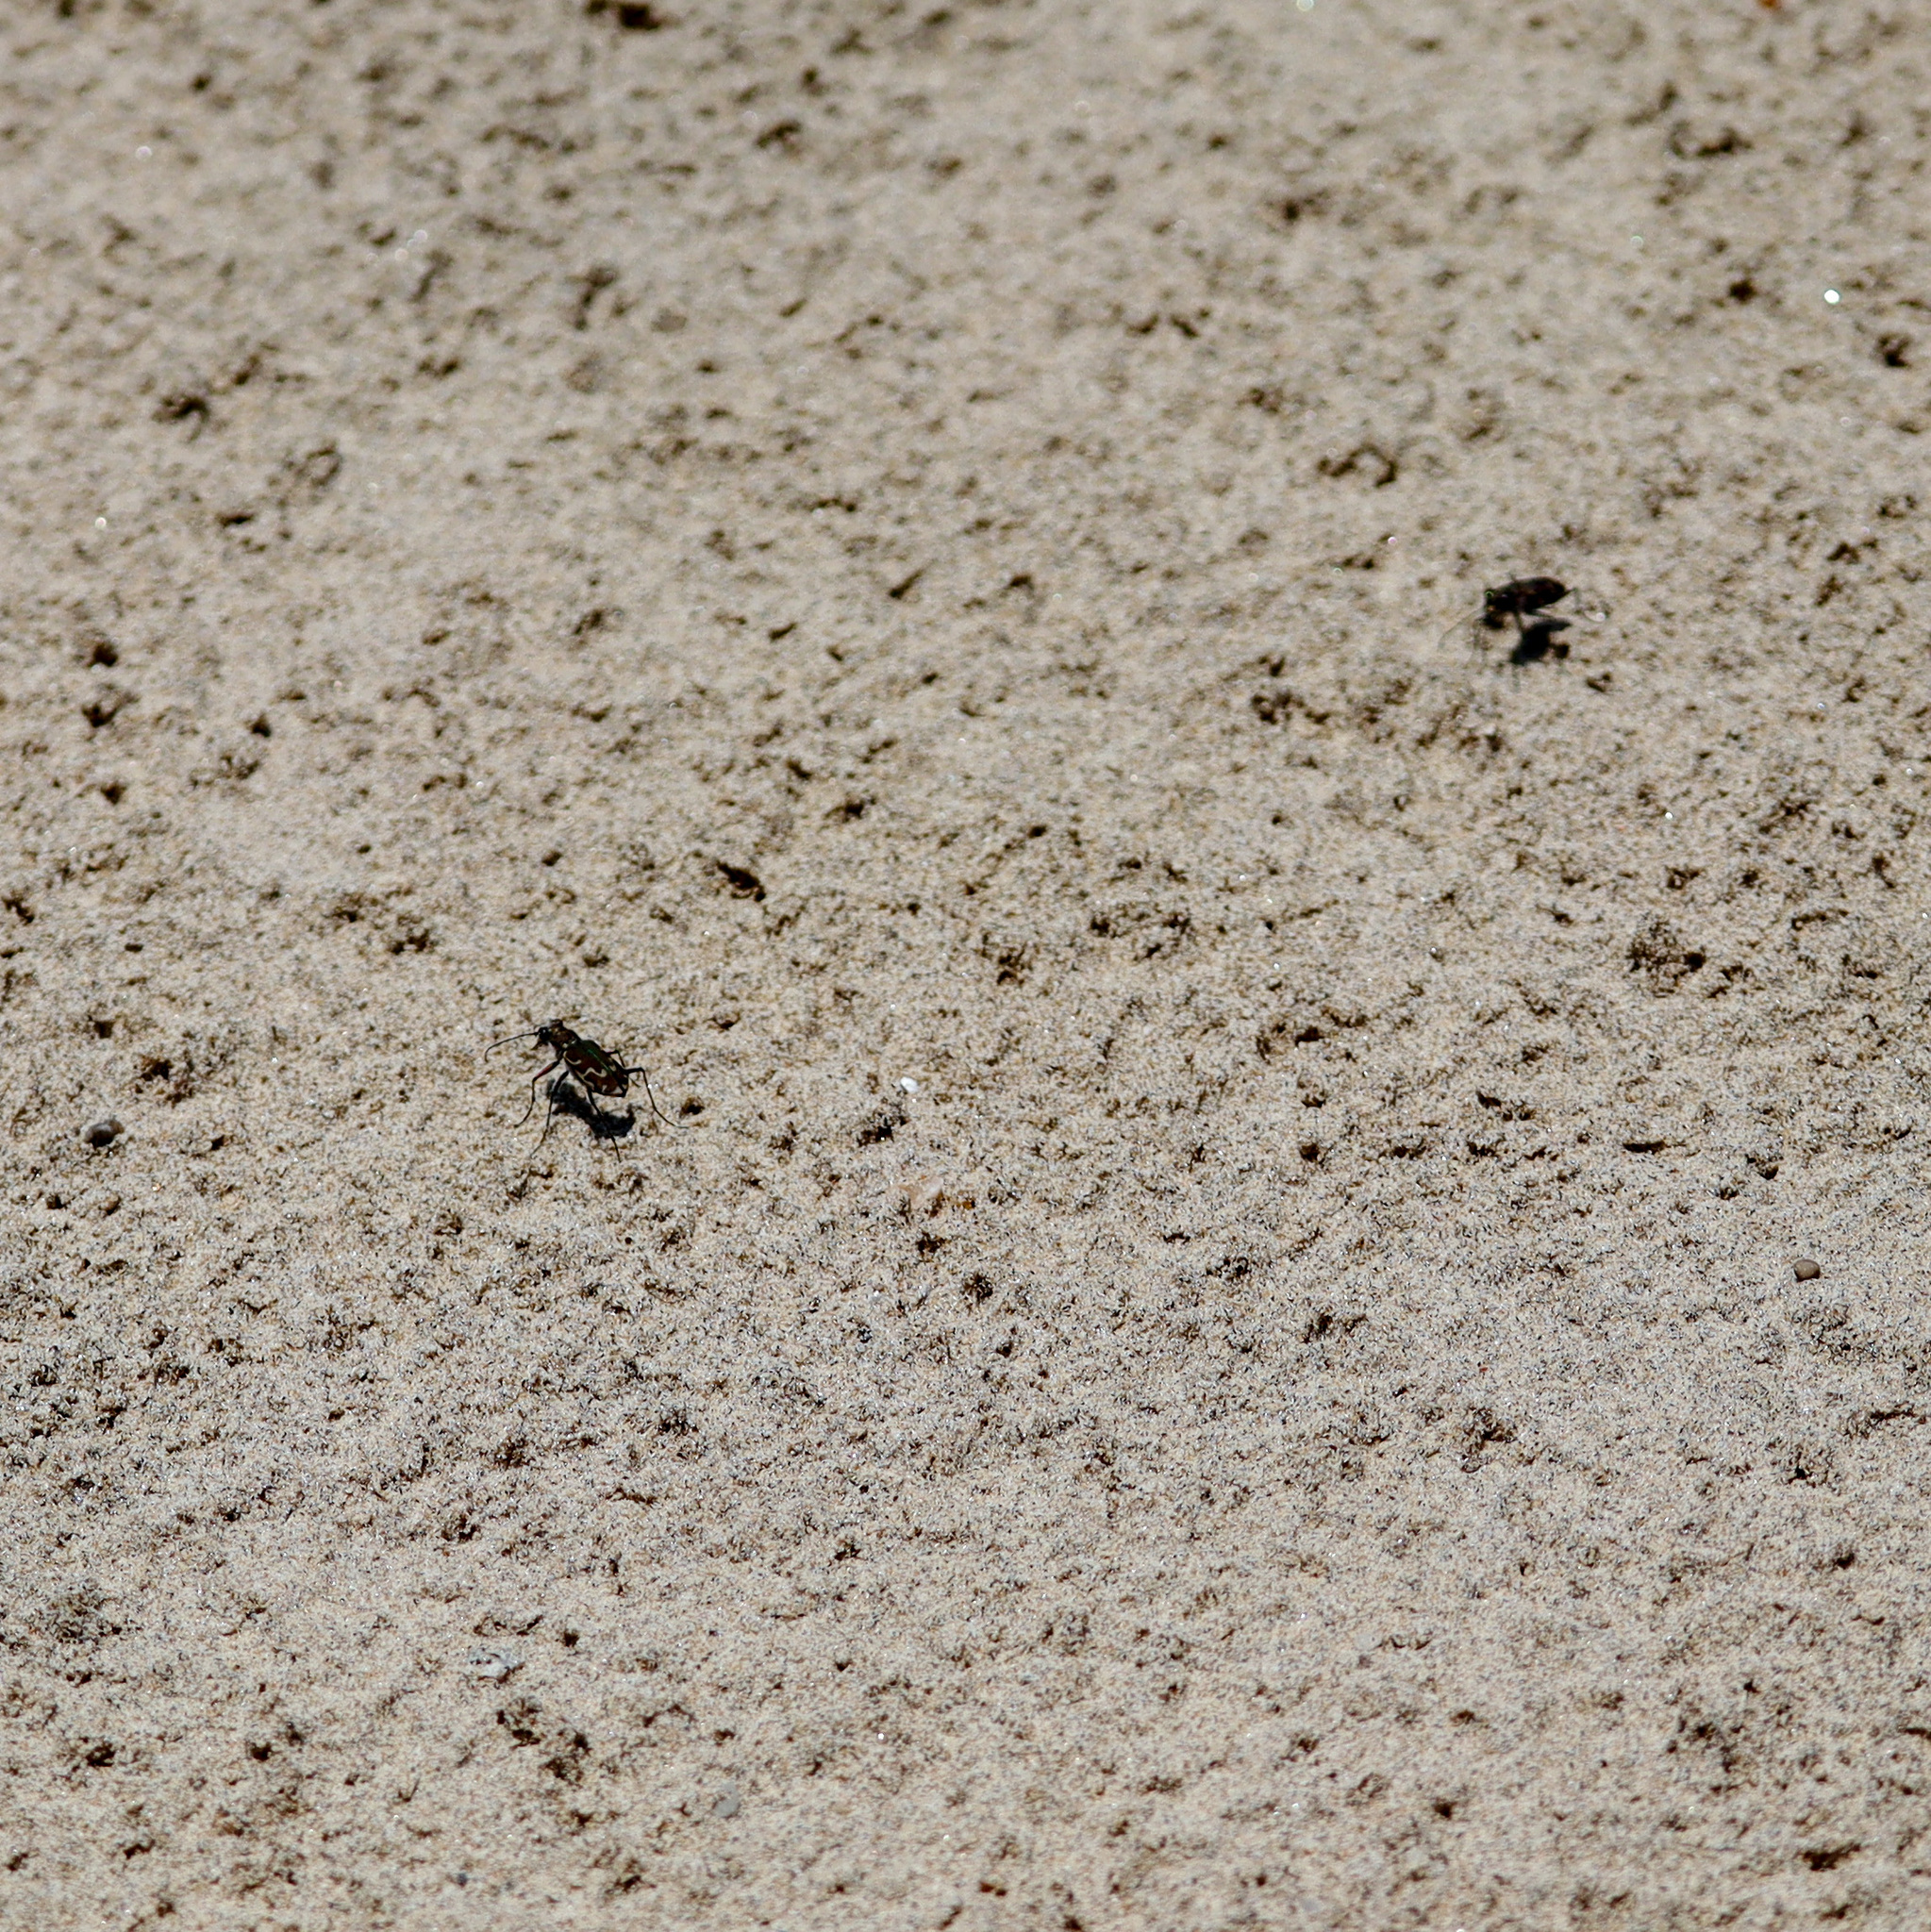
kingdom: Animalia
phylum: Arthropoda
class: Insecta
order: Coleoptera
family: Carabidae
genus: Cicindela
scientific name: Cicindela repanda
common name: Bronzed tiger beetle
